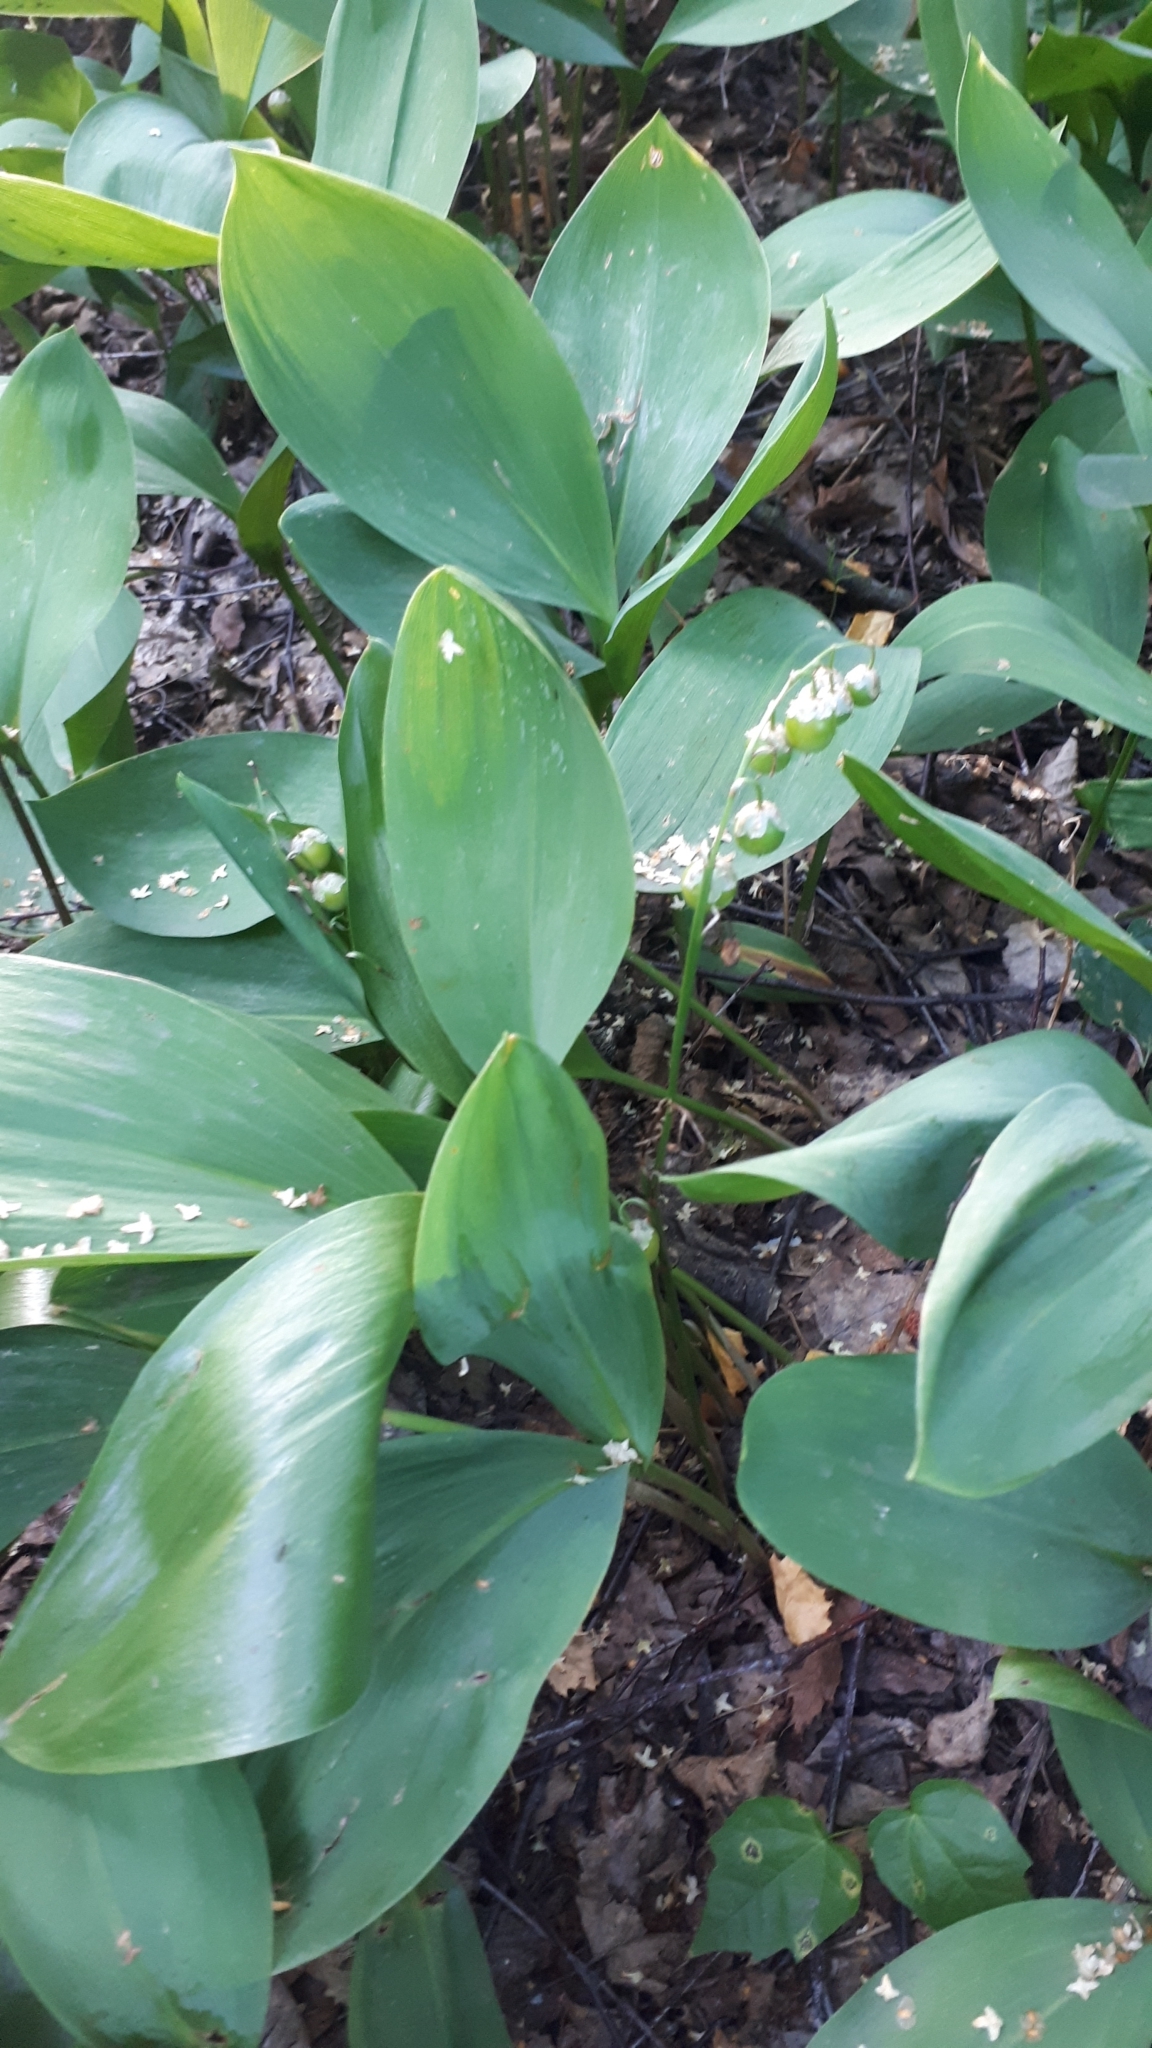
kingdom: Plantae
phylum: Tracheophyta
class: Liliopsida
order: Asparagales
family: Asparagaceae
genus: Convallaria
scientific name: Convallaria majalis
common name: Lily-of-the-valley
